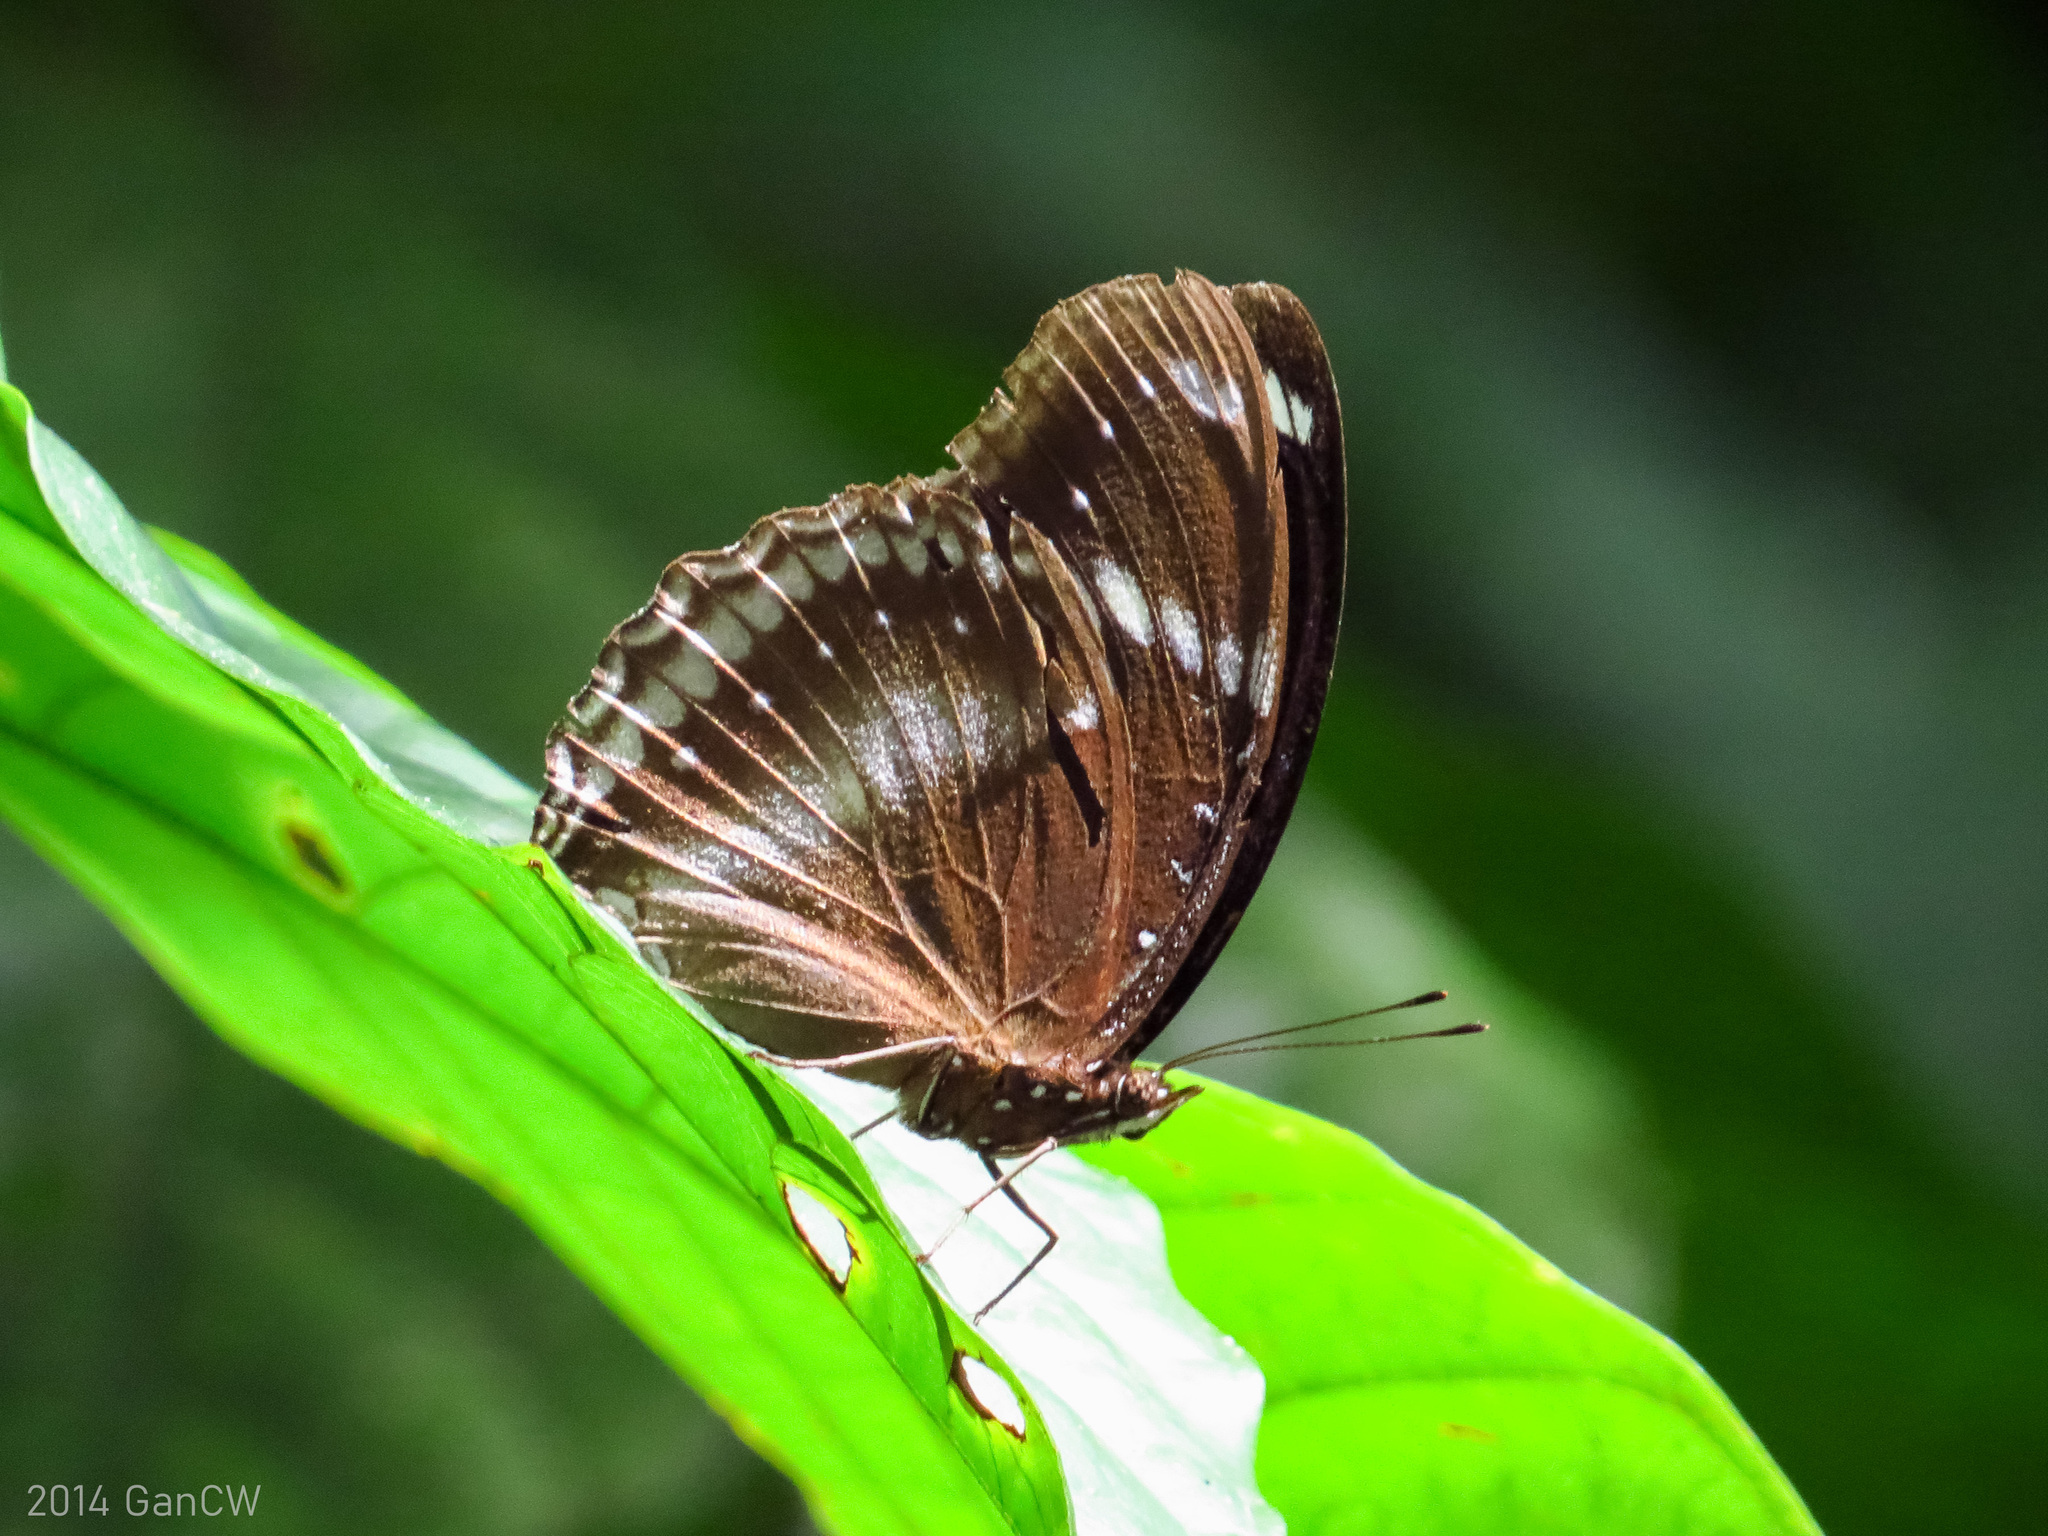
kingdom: Animalia
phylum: Arthropoda
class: Insecta
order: Lepidoptera
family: Nymphalidae
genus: Hypolimnas
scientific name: Hypolimnas bolina
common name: Great eggfly
